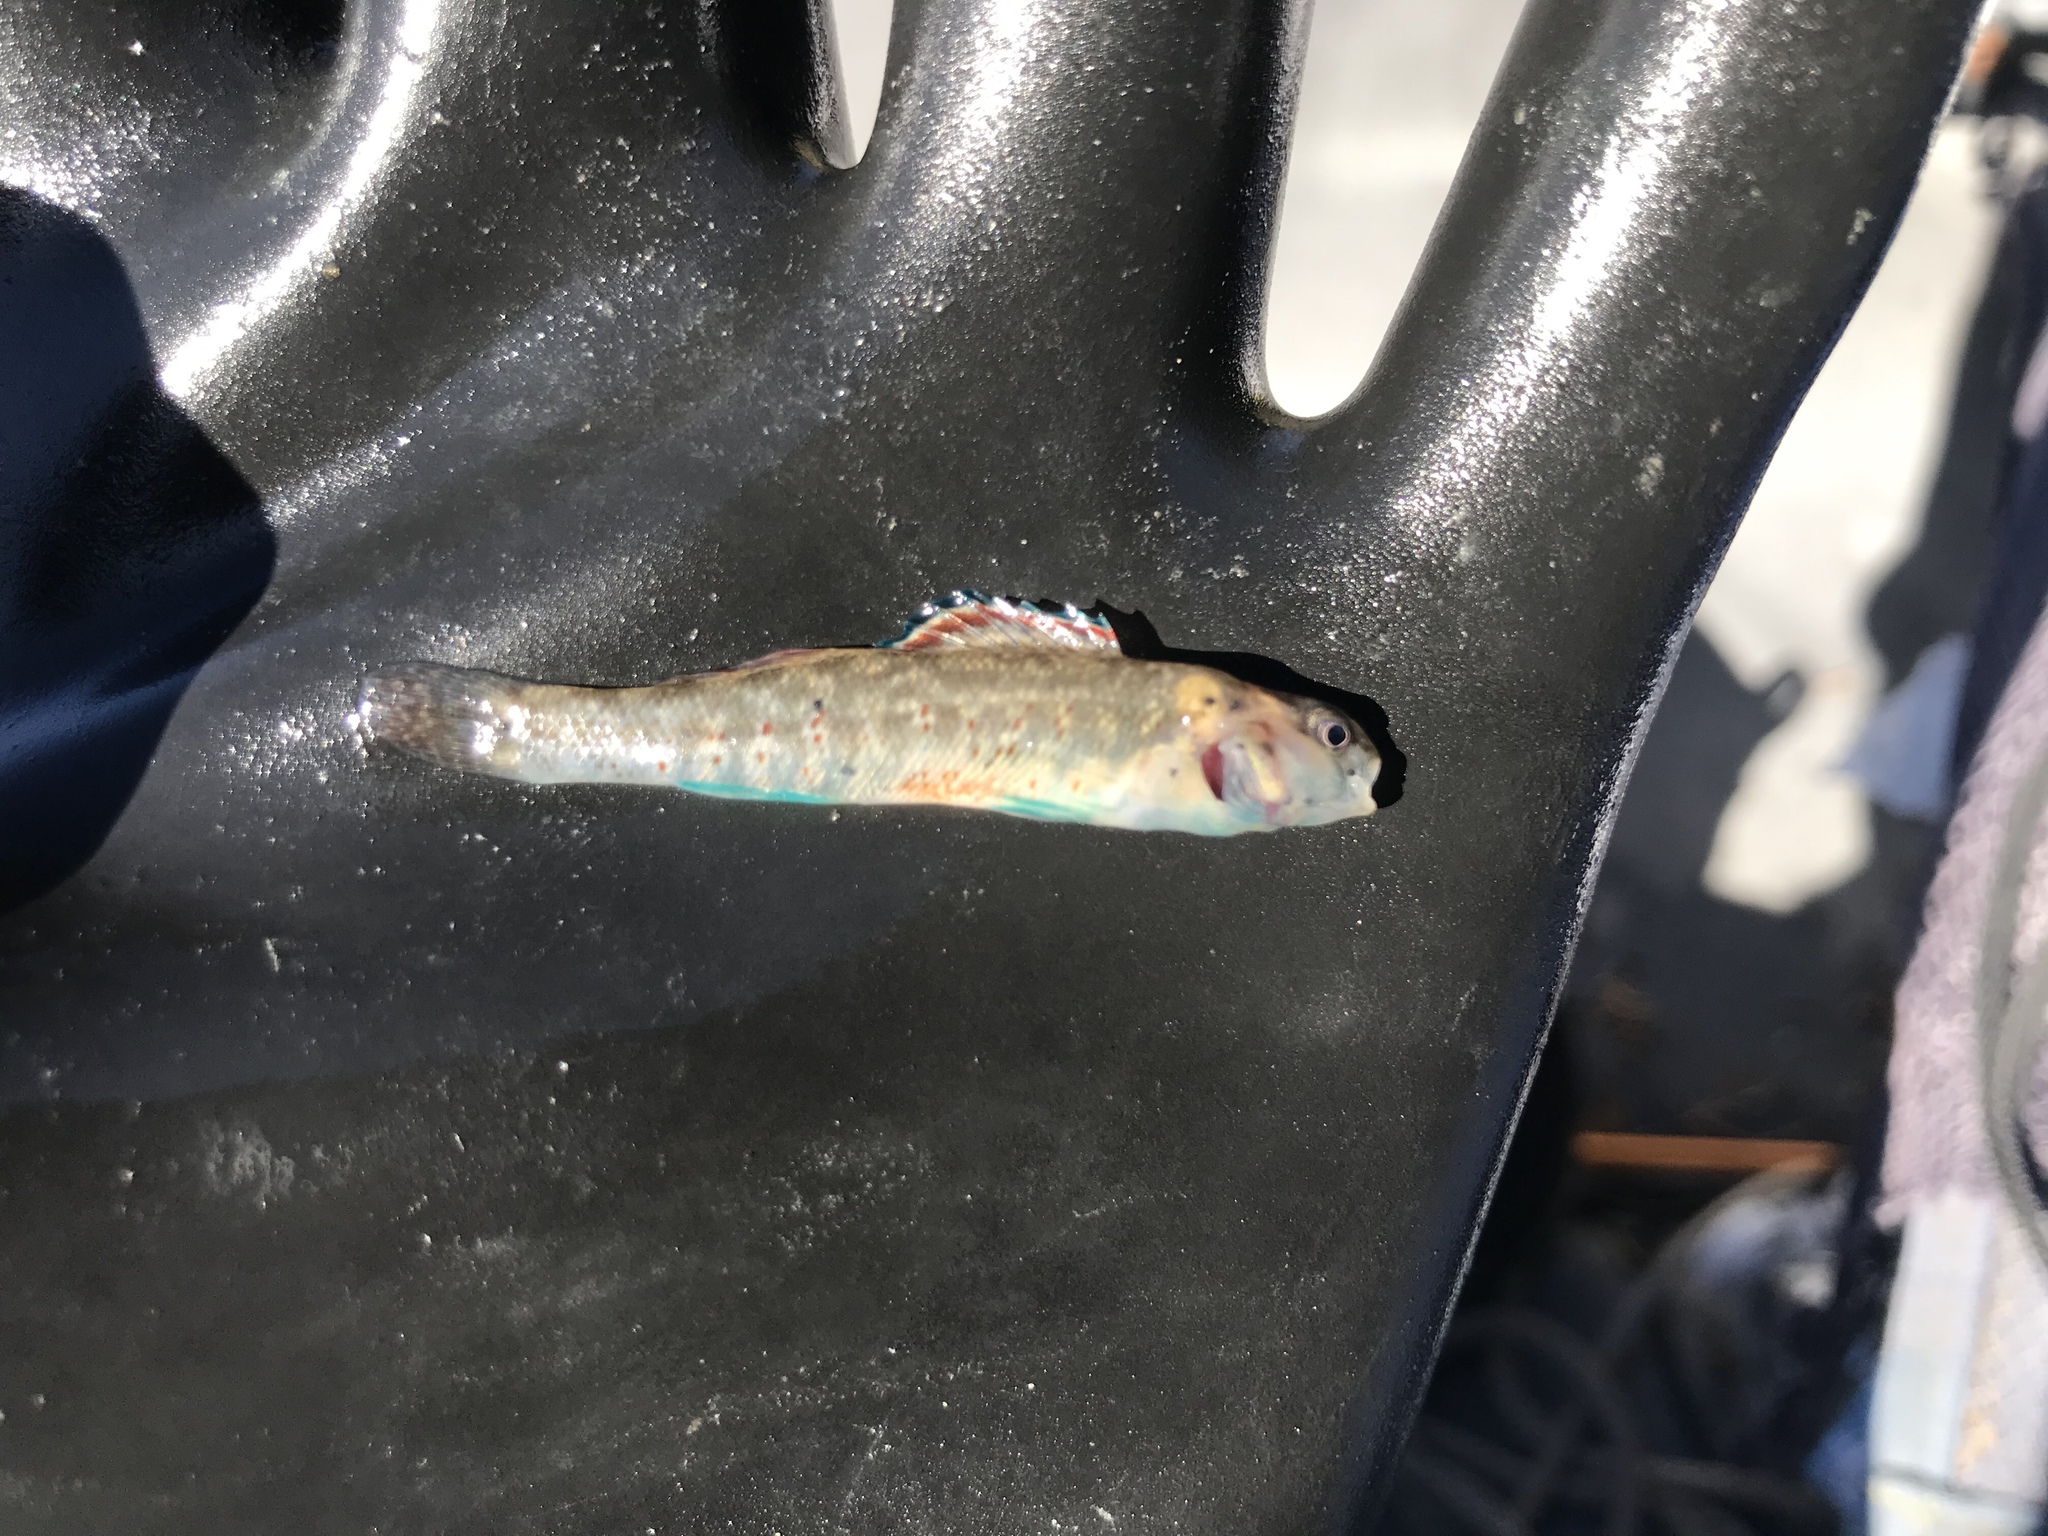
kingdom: Animalia
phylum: Chordata
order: Perciformes
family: Percidae
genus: Etheostoma
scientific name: Etheostoma lepidum
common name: Greenthroat darter
